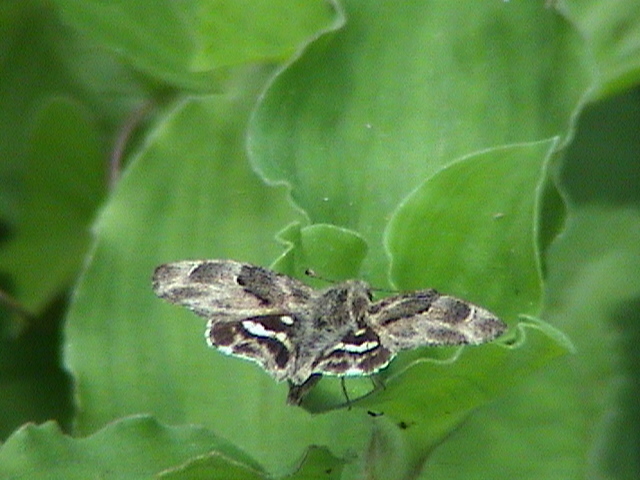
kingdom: Animalia
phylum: Arthropoda
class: Insecta
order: Lepidoptera
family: Hesperiidae
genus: Gomalia
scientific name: Gomalia elma
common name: Green-marbled skipper
